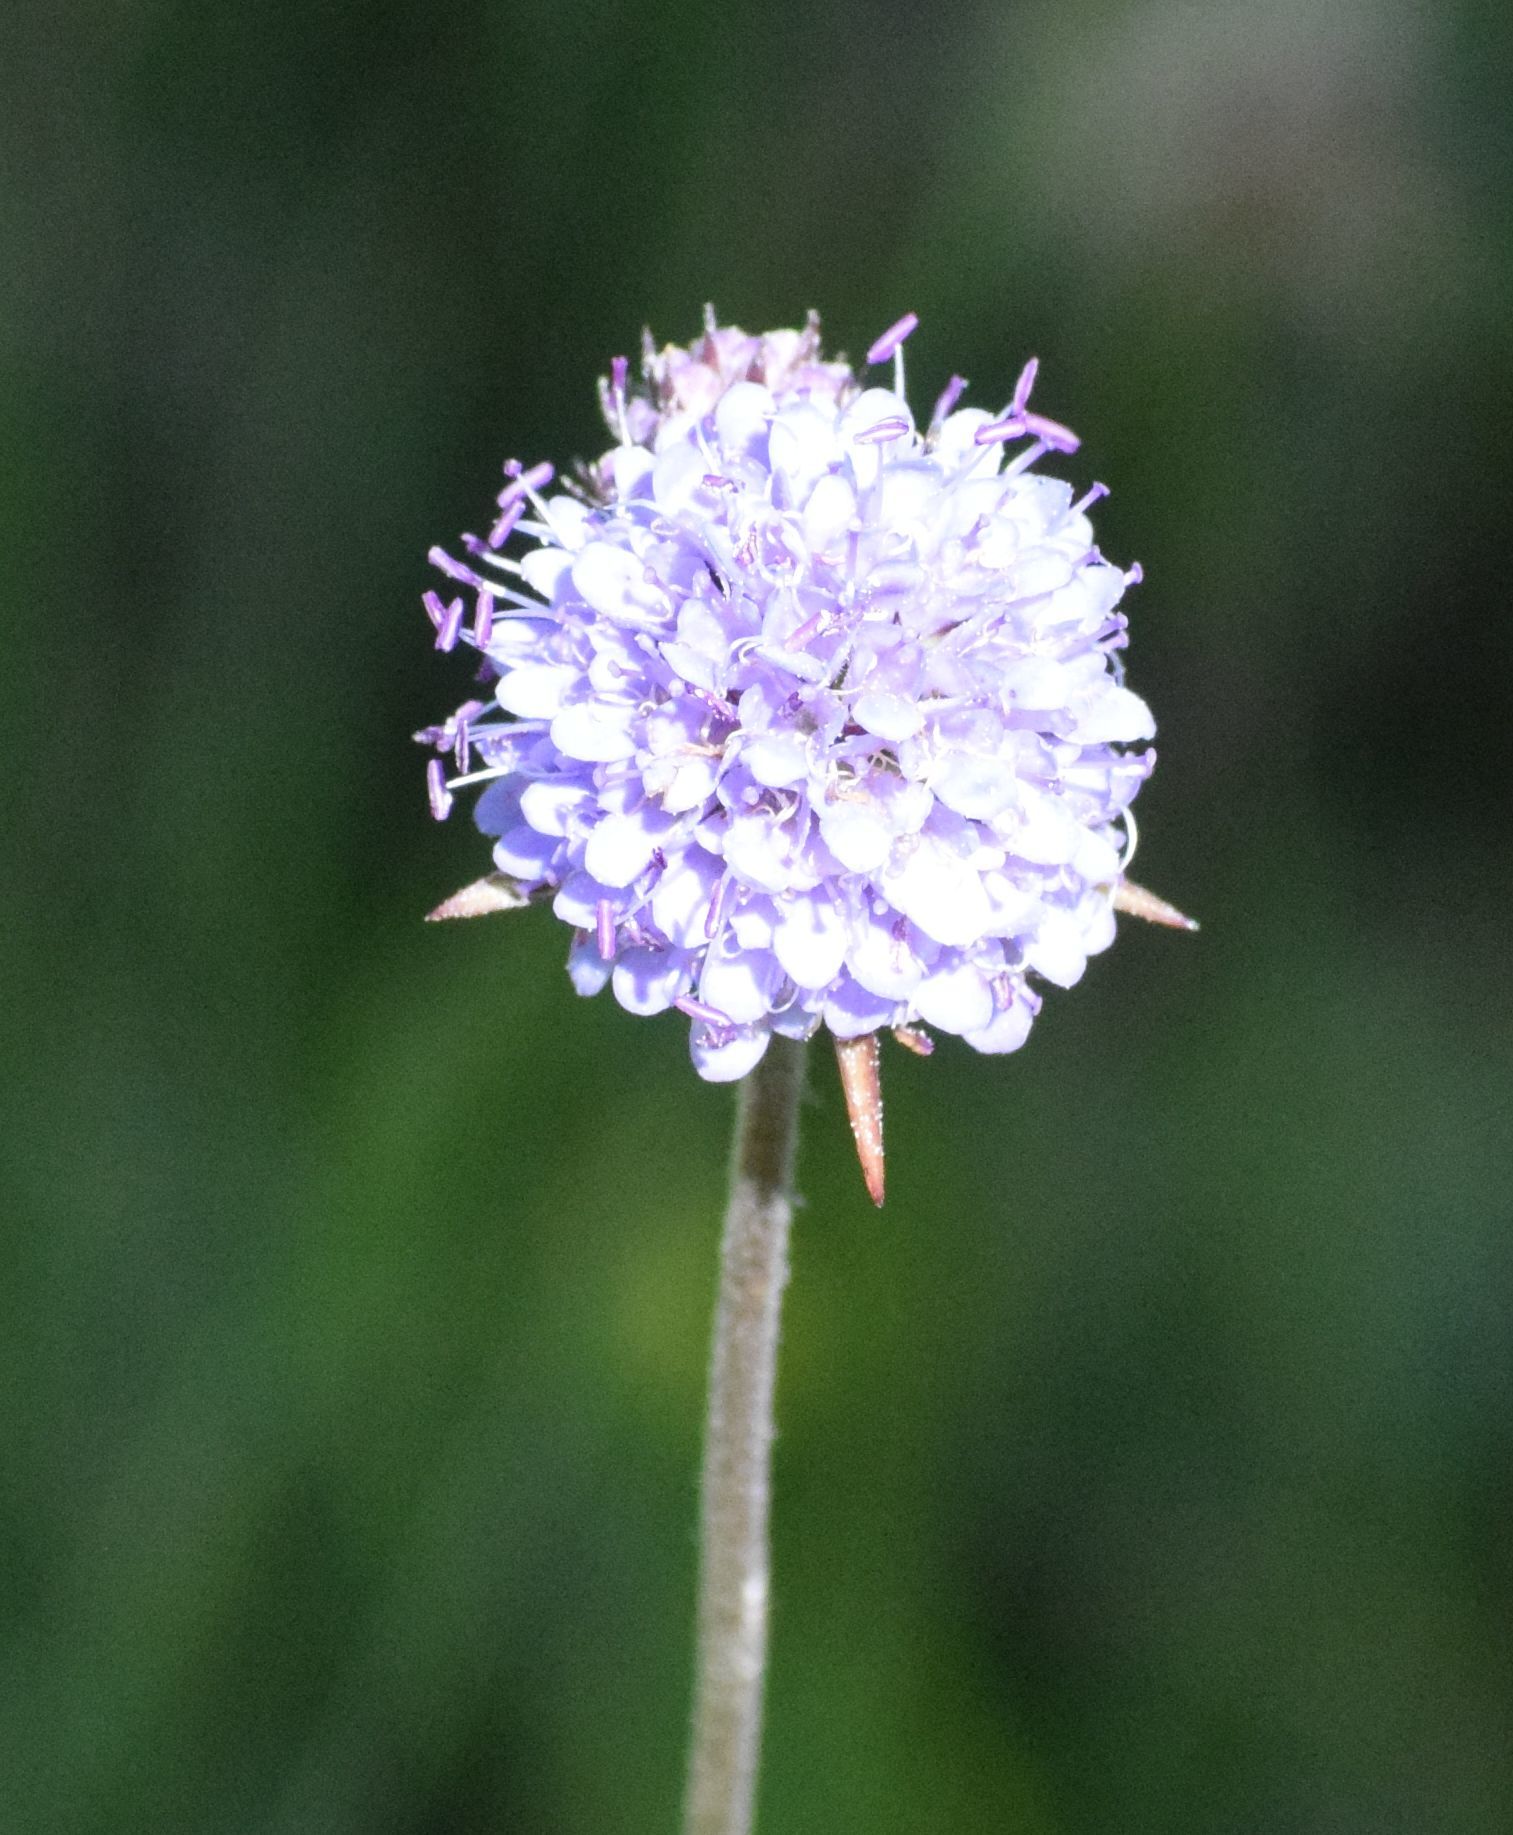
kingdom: Plantae
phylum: Tracheophyta
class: Magnoliopsida
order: Dipsacales
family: Caprifoliaceae
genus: Succisa
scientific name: Succisa pratensis
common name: Devil's-bit
